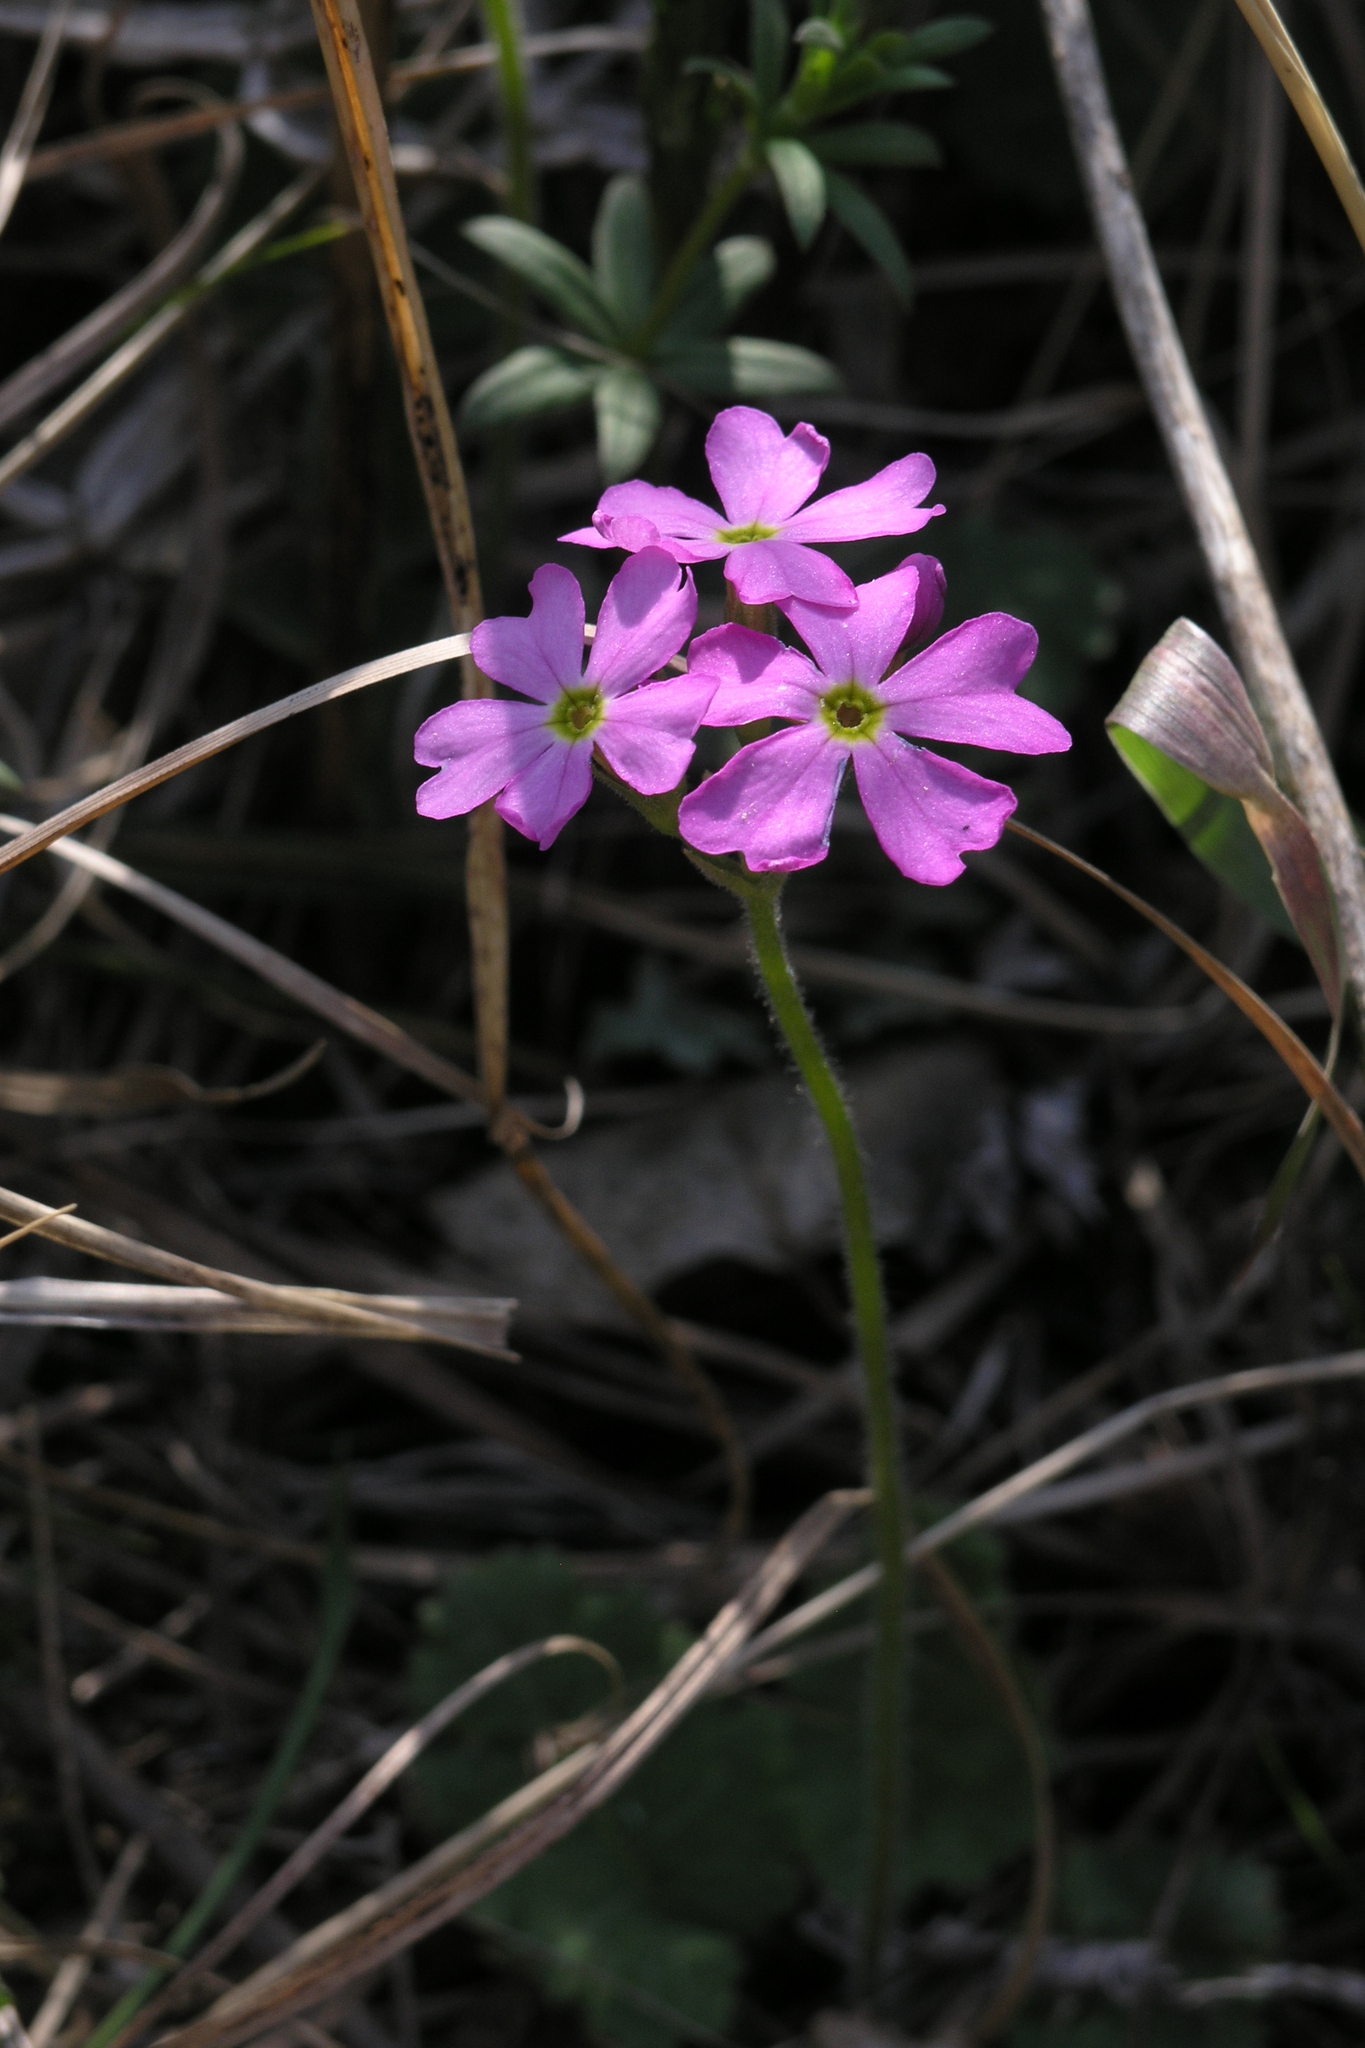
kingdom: Plantae
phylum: Tracheophyta
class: Magnoliopsida
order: Ericales
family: Primulaceae
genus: Primula
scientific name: Primula cortusoides
